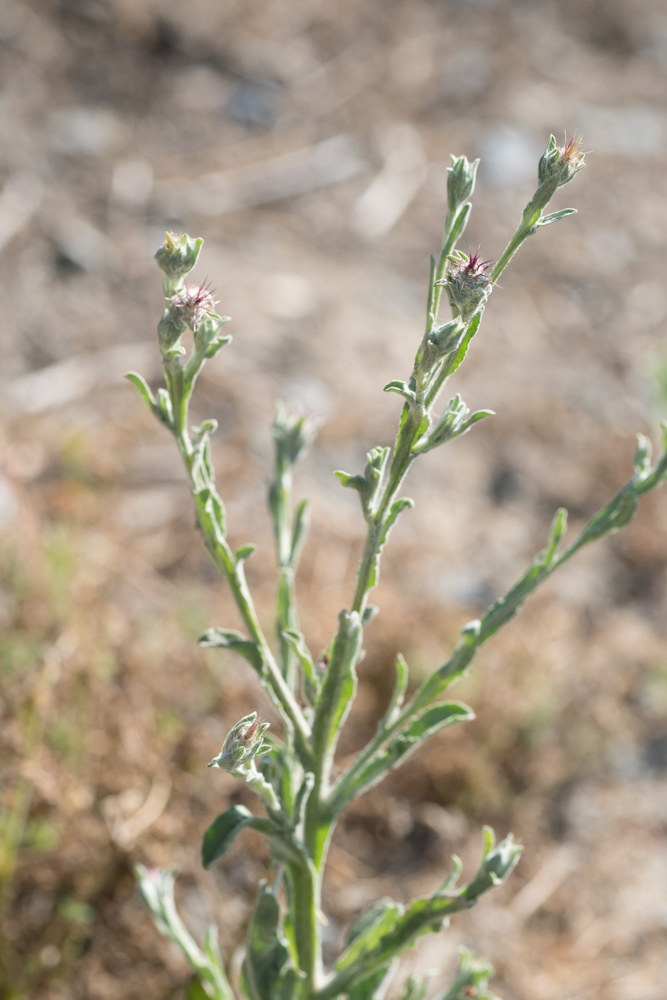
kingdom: Plantae
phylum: Tracheophyta
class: Magnoliopsida
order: Asterales
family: Asteraceae
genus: Centaurea
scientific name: Centaurea melitensis
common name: Maltese star-thistle
